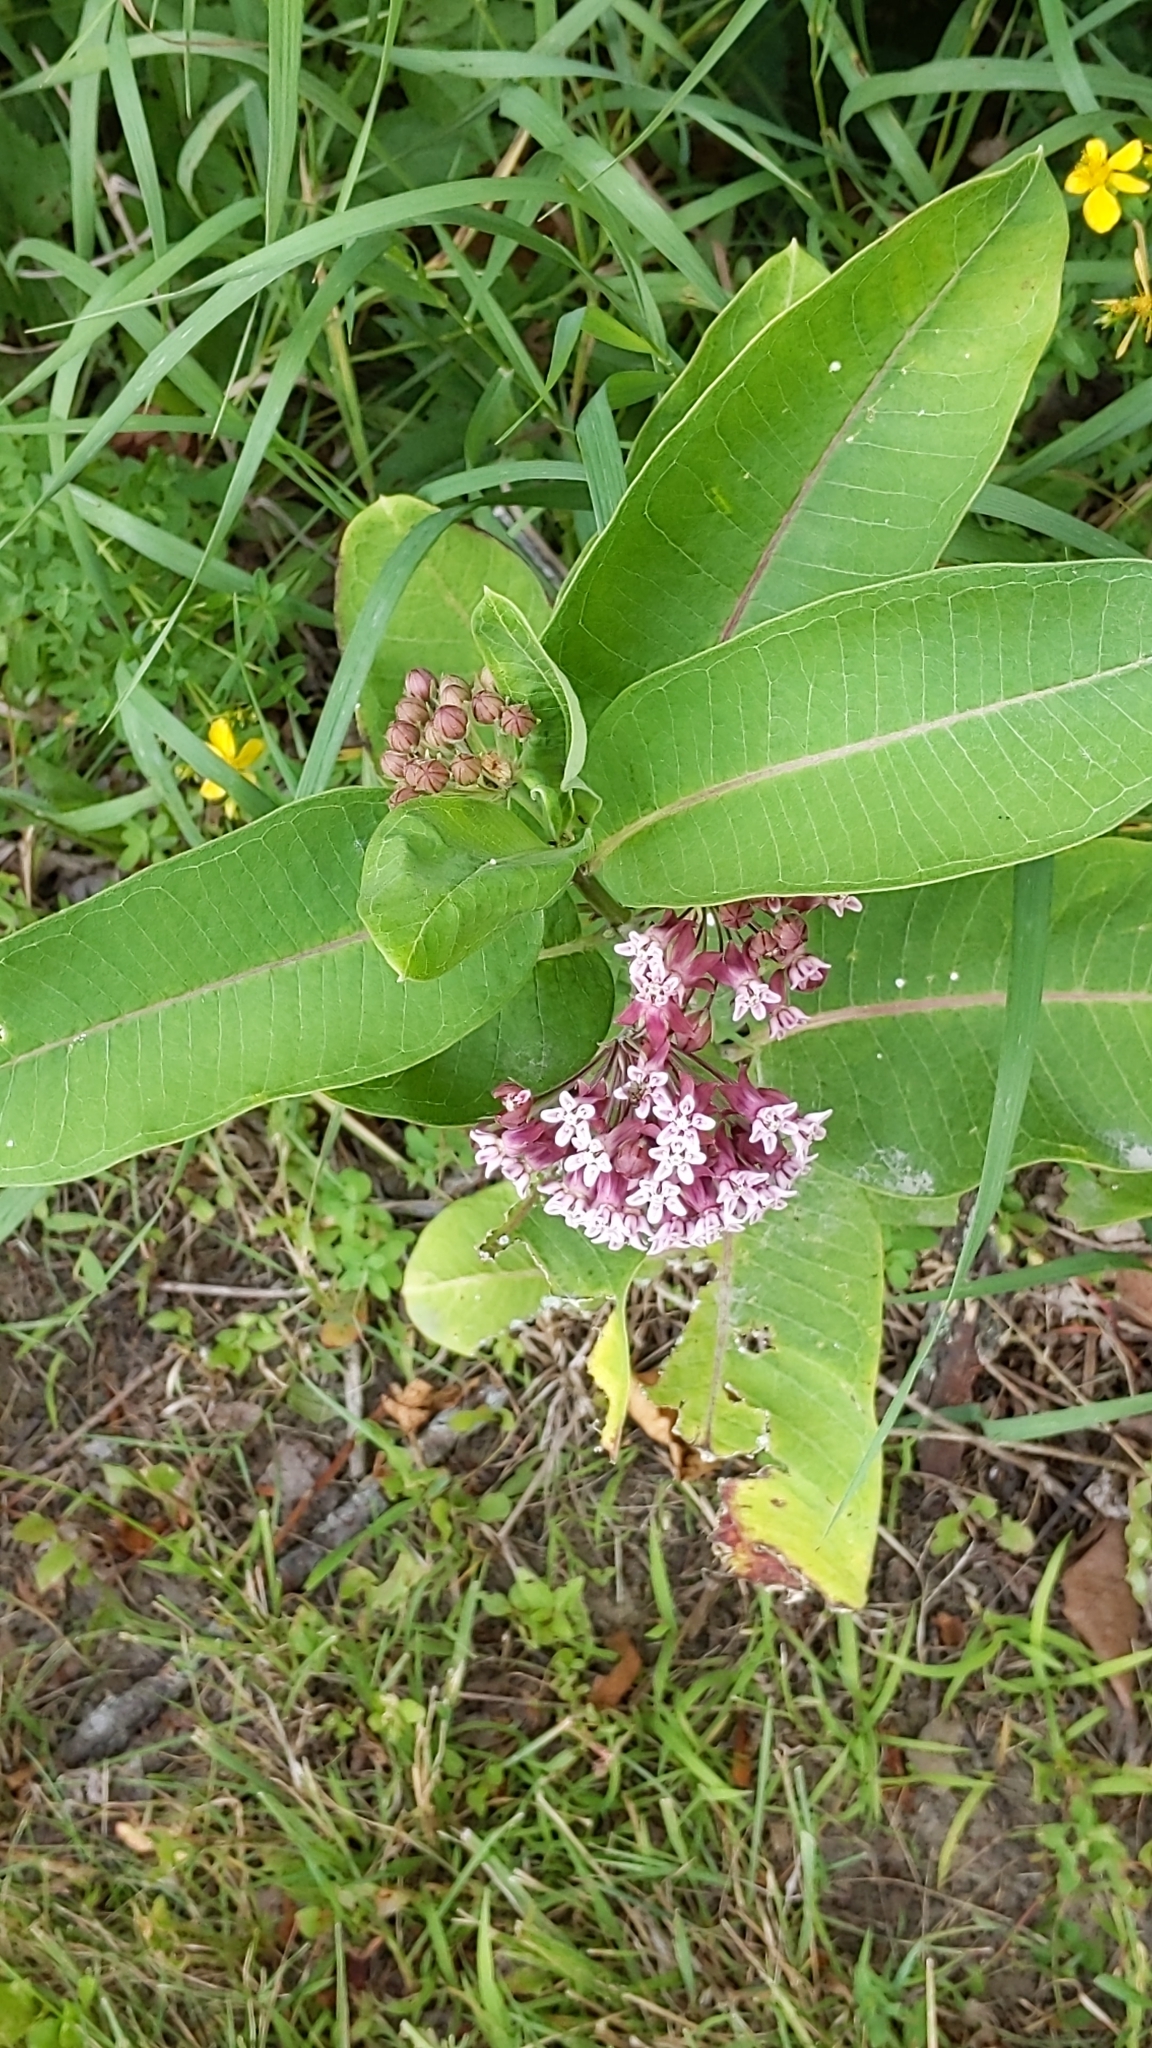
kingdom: Plantae
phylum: Tracheophyta
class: Magnoliopsida
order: Gentianales
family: Apocynaceae
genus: Asclepias
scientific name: Asclepias syriaca
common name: Common milkweed
